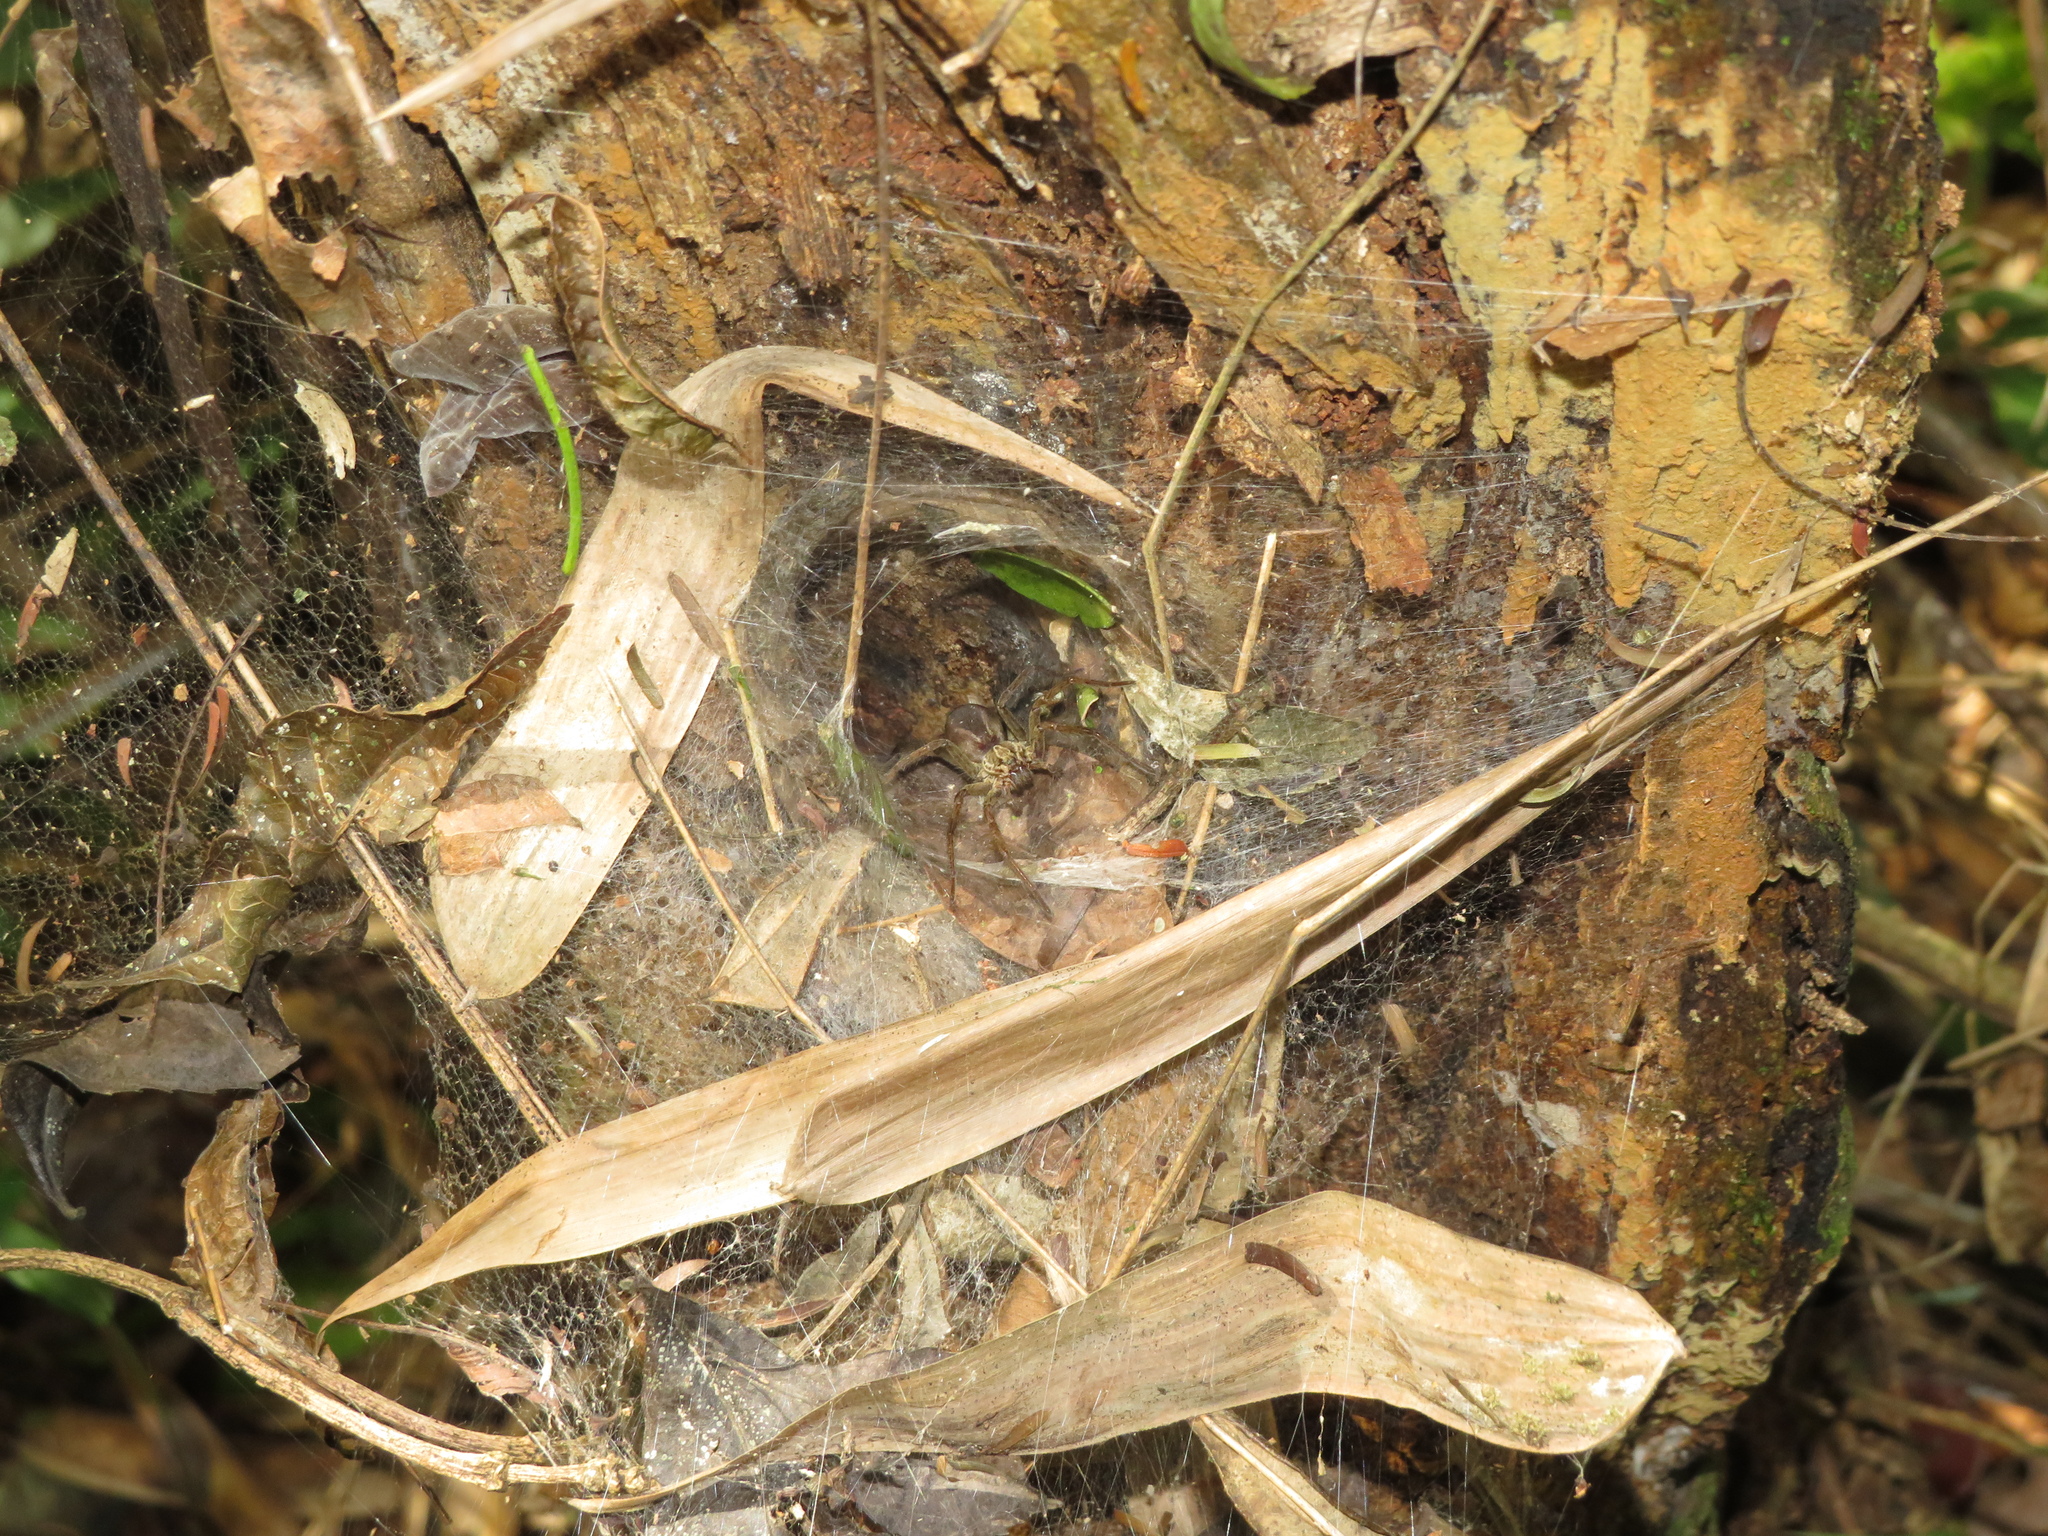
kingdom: Animalia
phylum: Arthropoda
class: Arachnida
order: Araneae
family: Lycosidae
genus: Aglaoctenus
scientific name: Aglaoctenus lagotis
